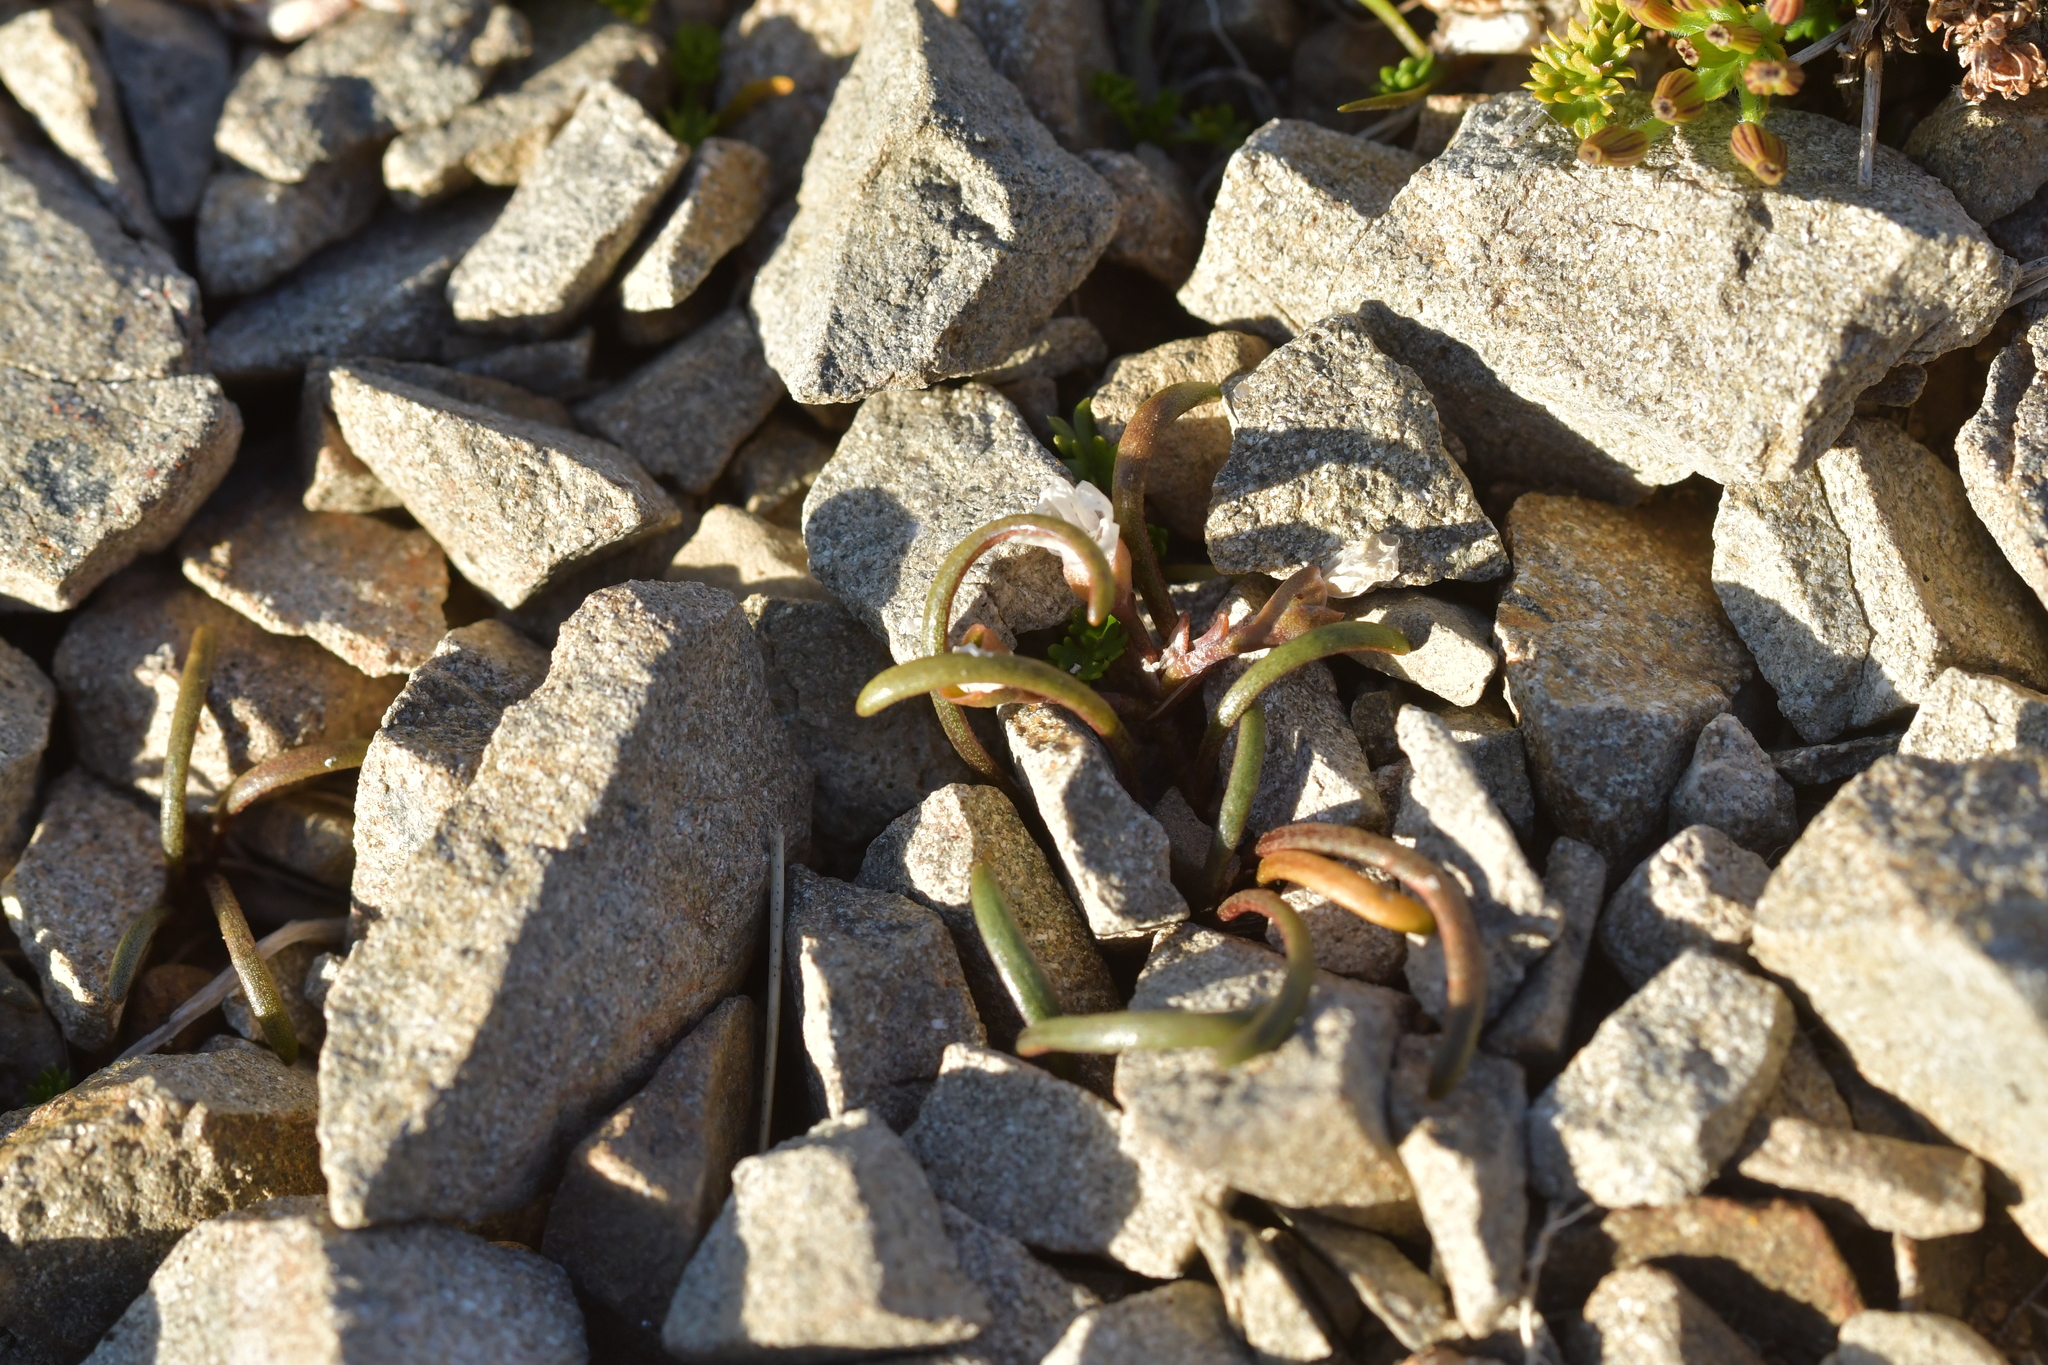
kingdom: Plantae
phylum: Tracheophyta
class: Magnoliopsida
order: Caryophyllales
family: Montiaceae
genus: Montia
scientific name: Montia calycina
